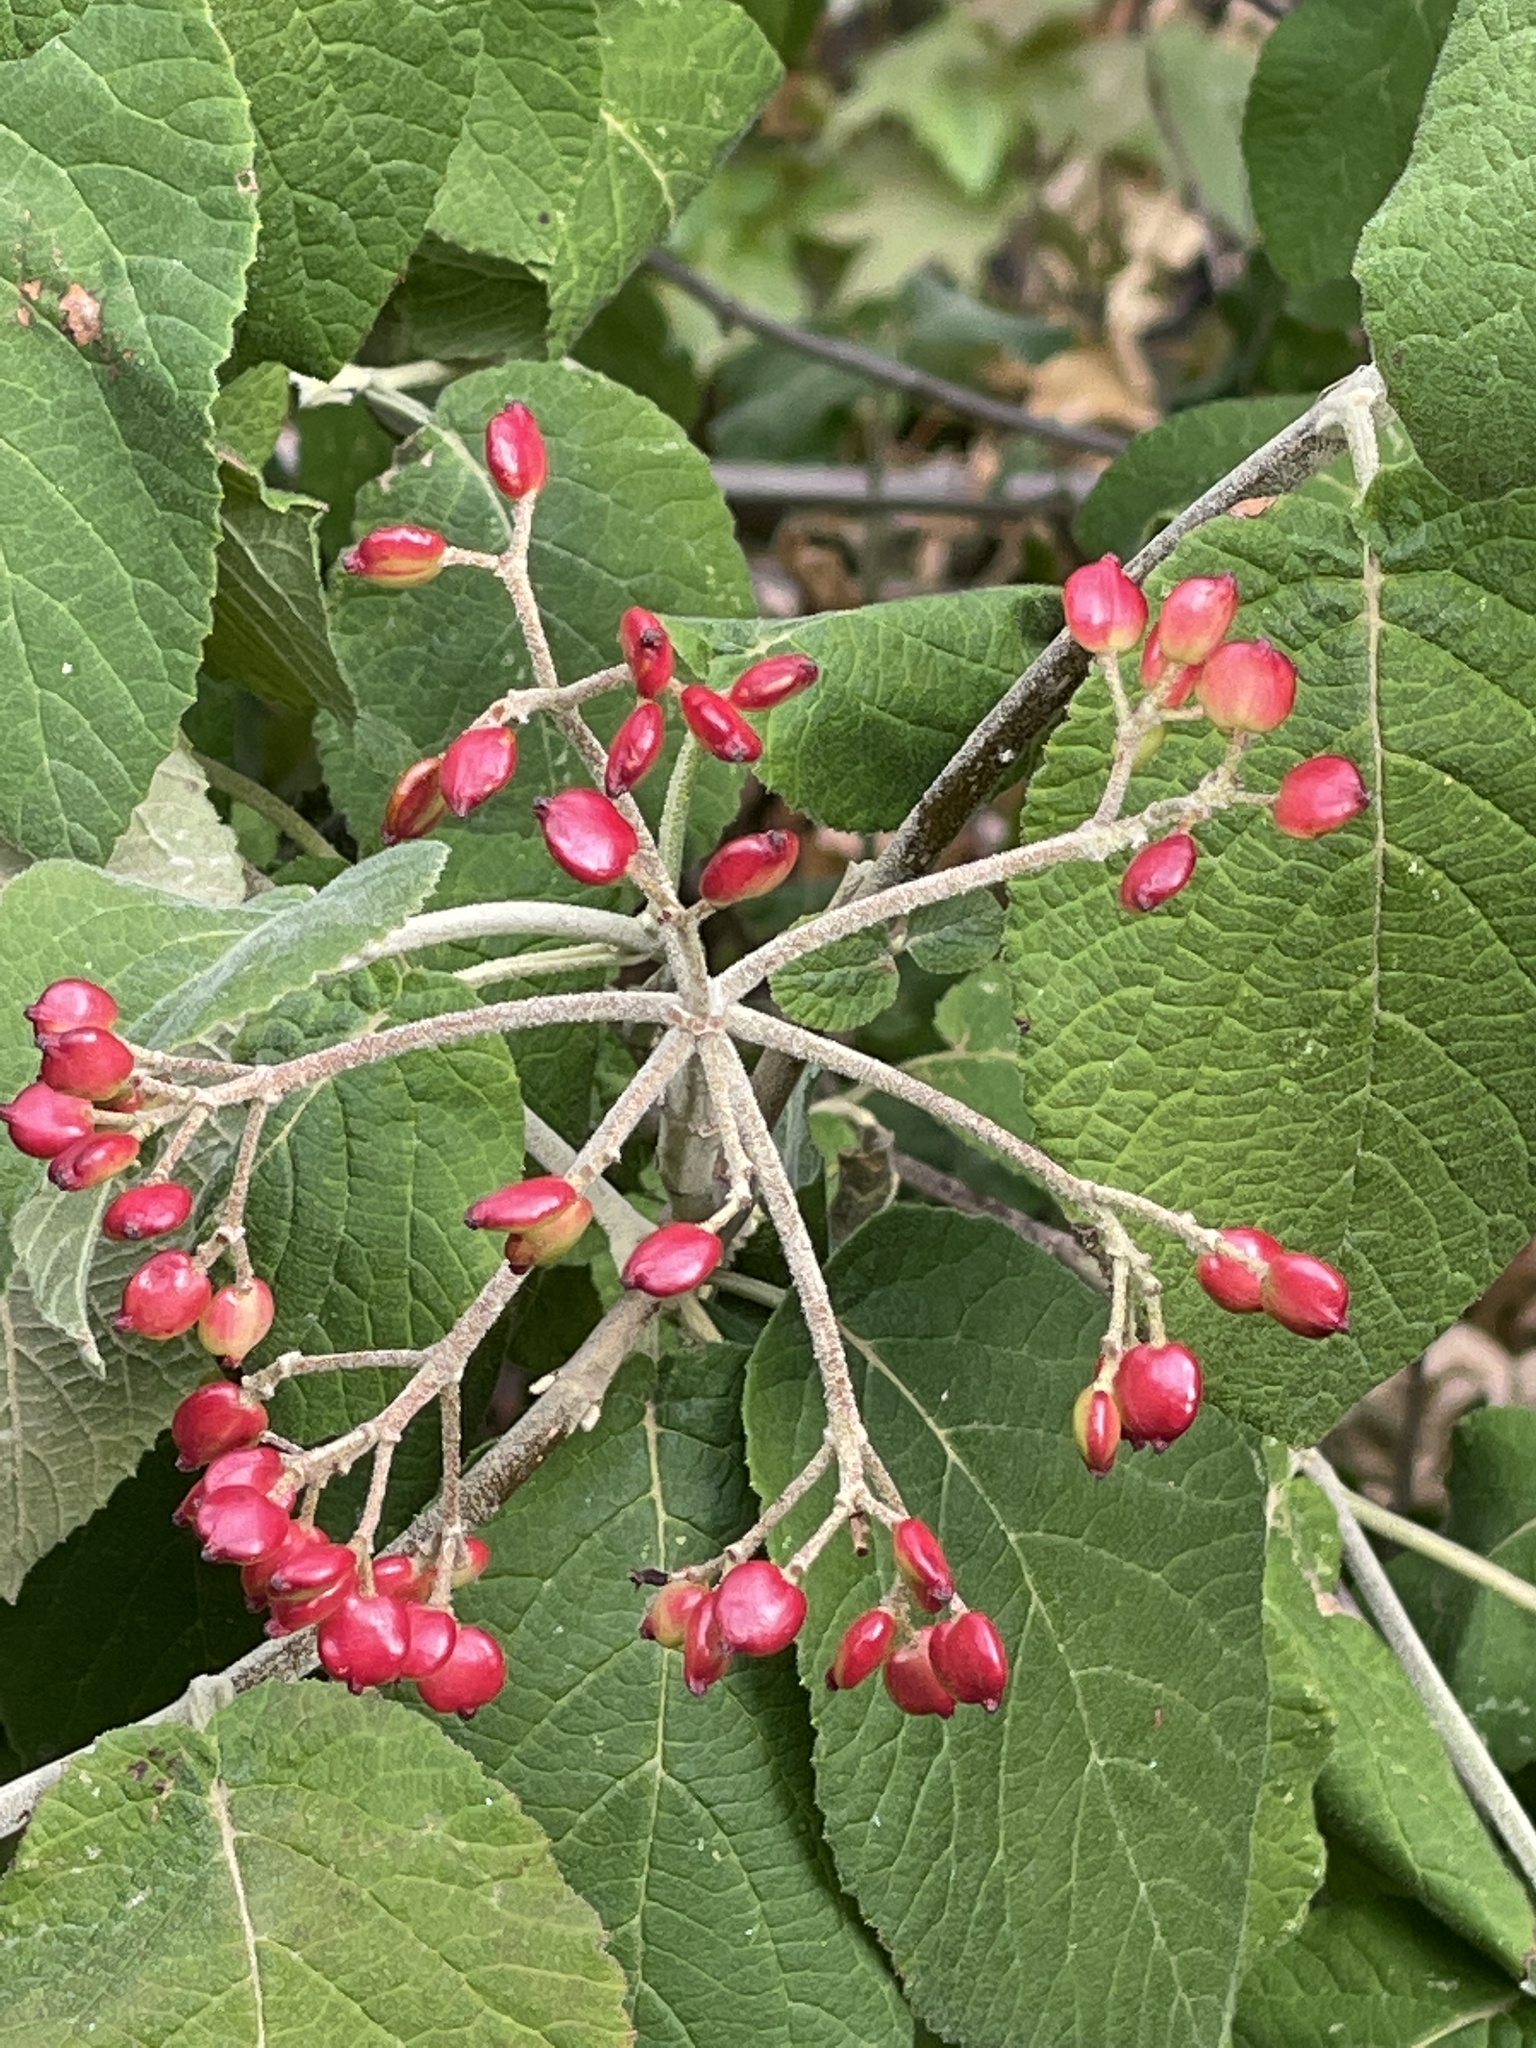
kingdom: Plantae
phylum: Tracheophyta
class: Magnoliopsida
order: Dipsacales
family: Viburnaceae
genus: Viburnum
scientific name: Viburnum lantana
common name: Wayfaring tree
